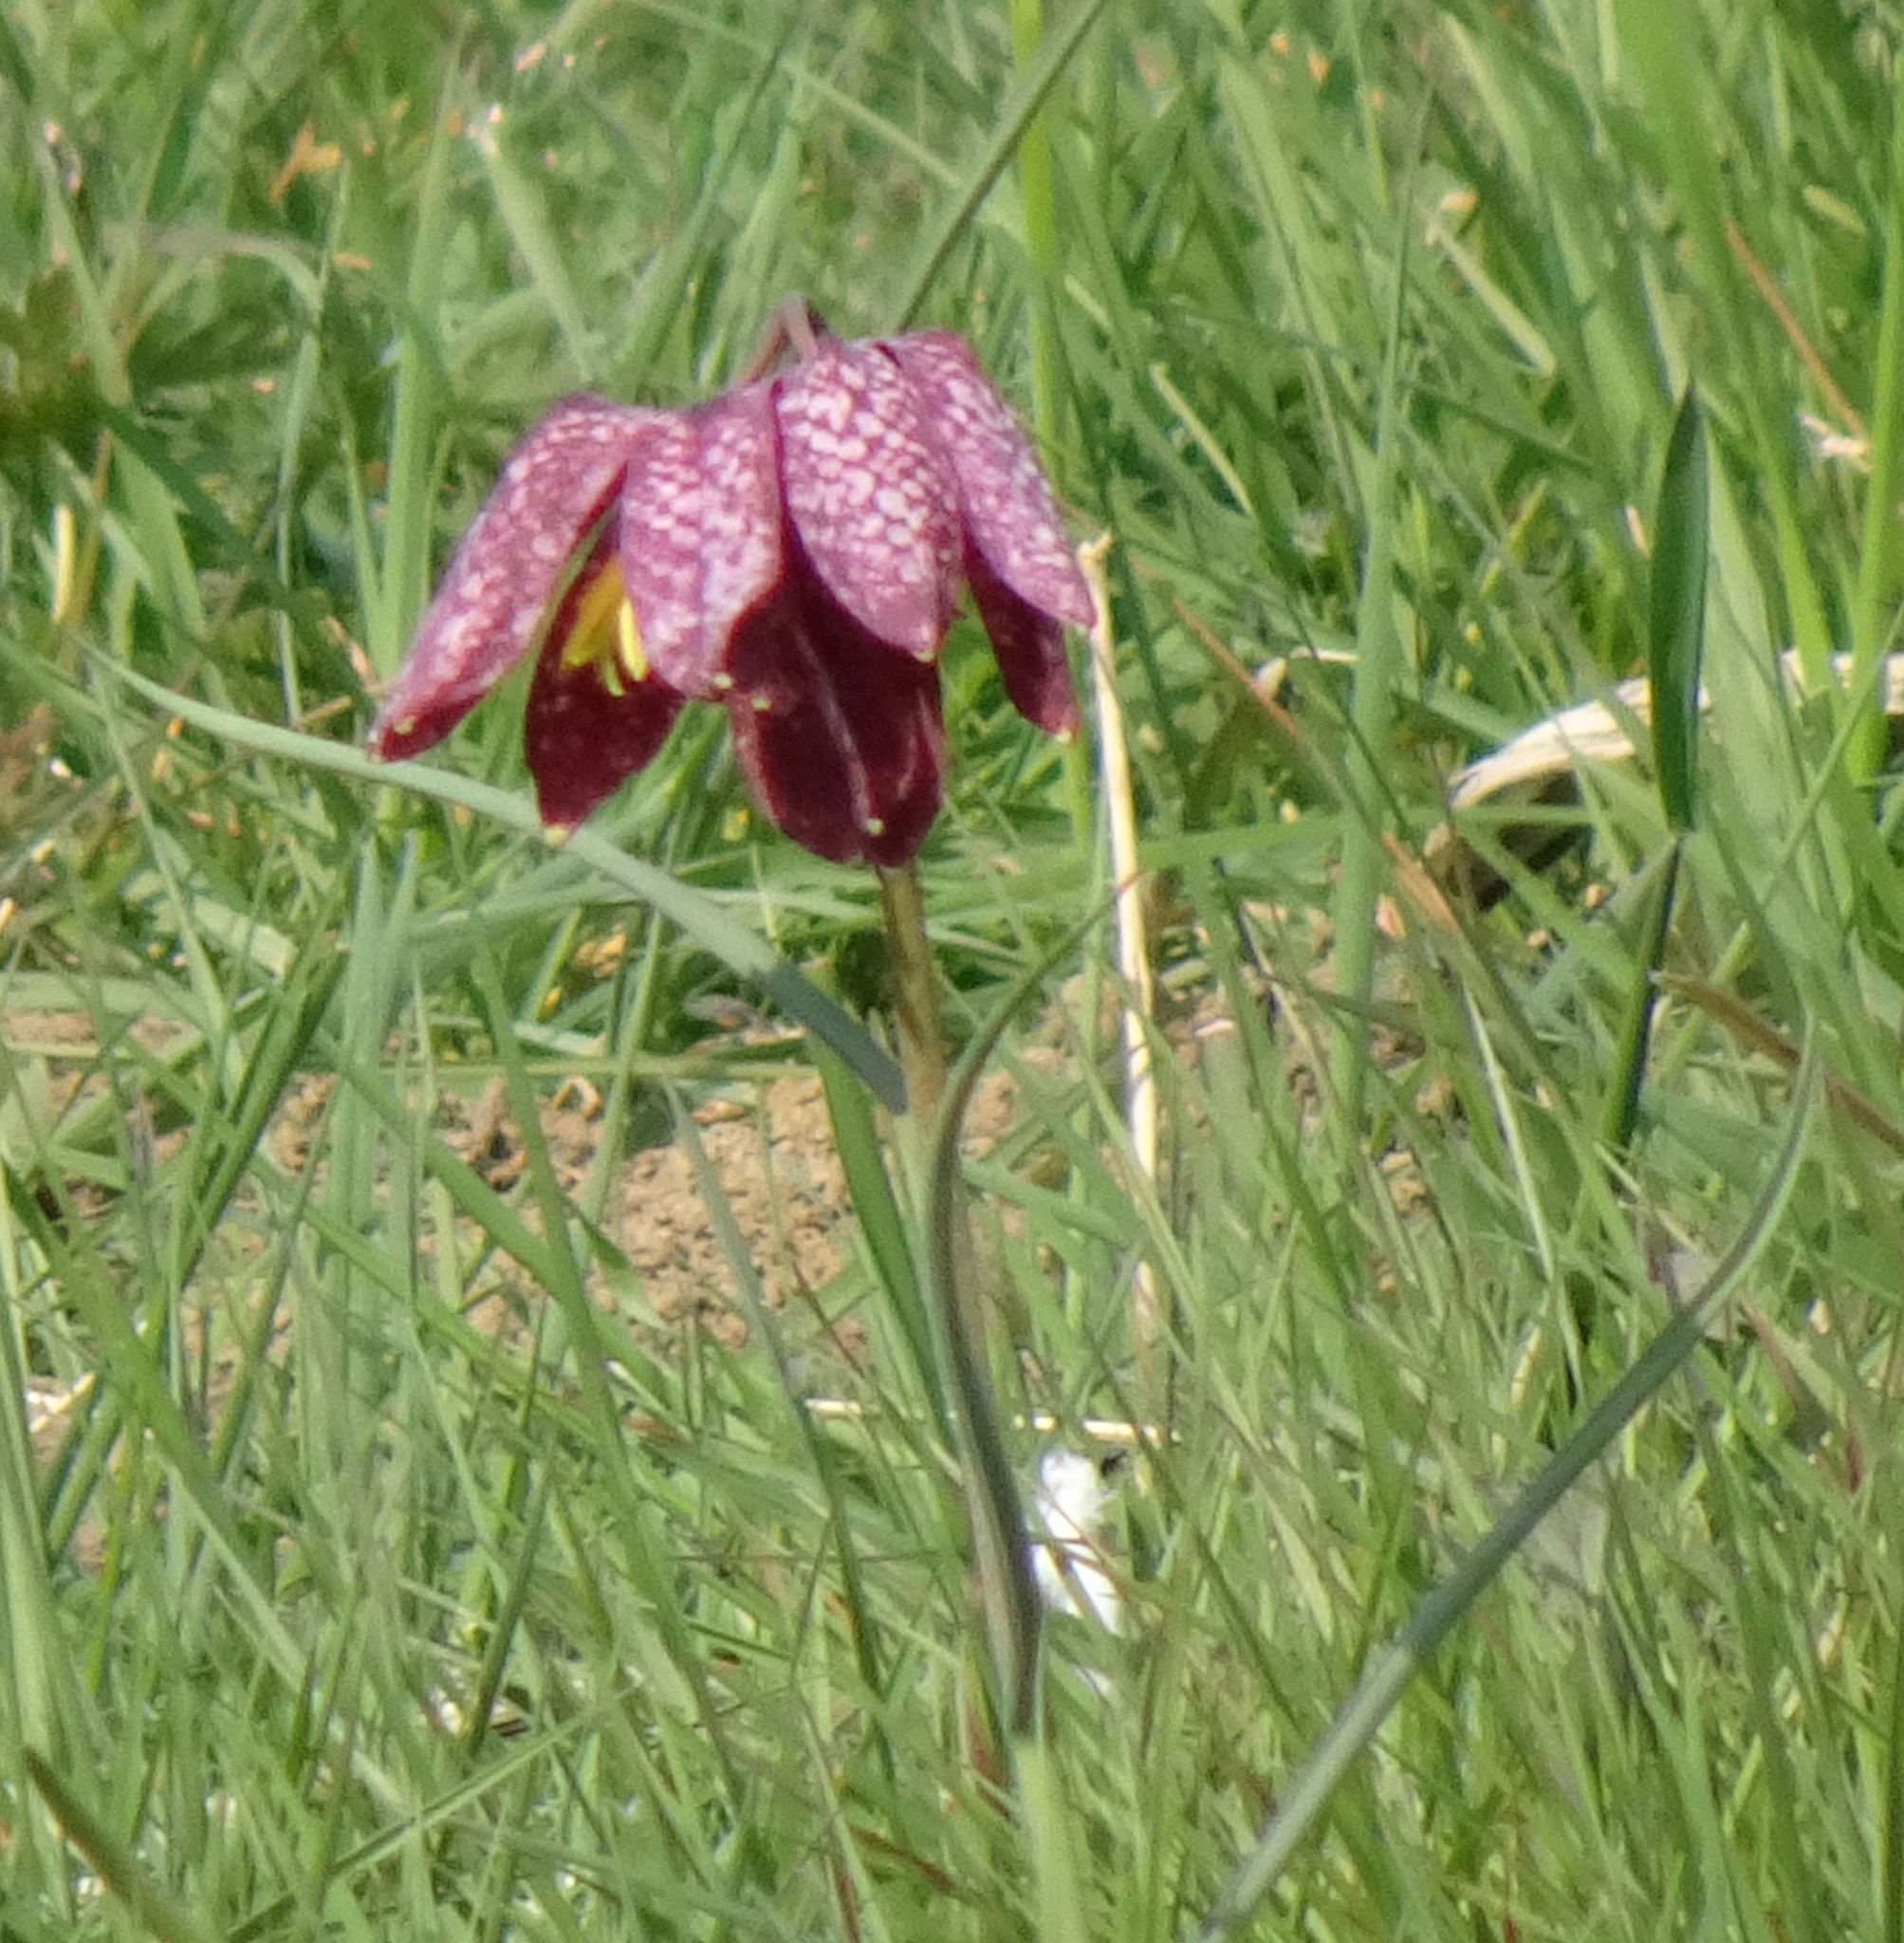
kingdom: Plantae
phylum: Tracheophyta
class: Liliopsida
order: Liliales
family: Liliaceae
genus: Fritillaria
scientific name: Fritillaria meleagris
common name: Fritillary
